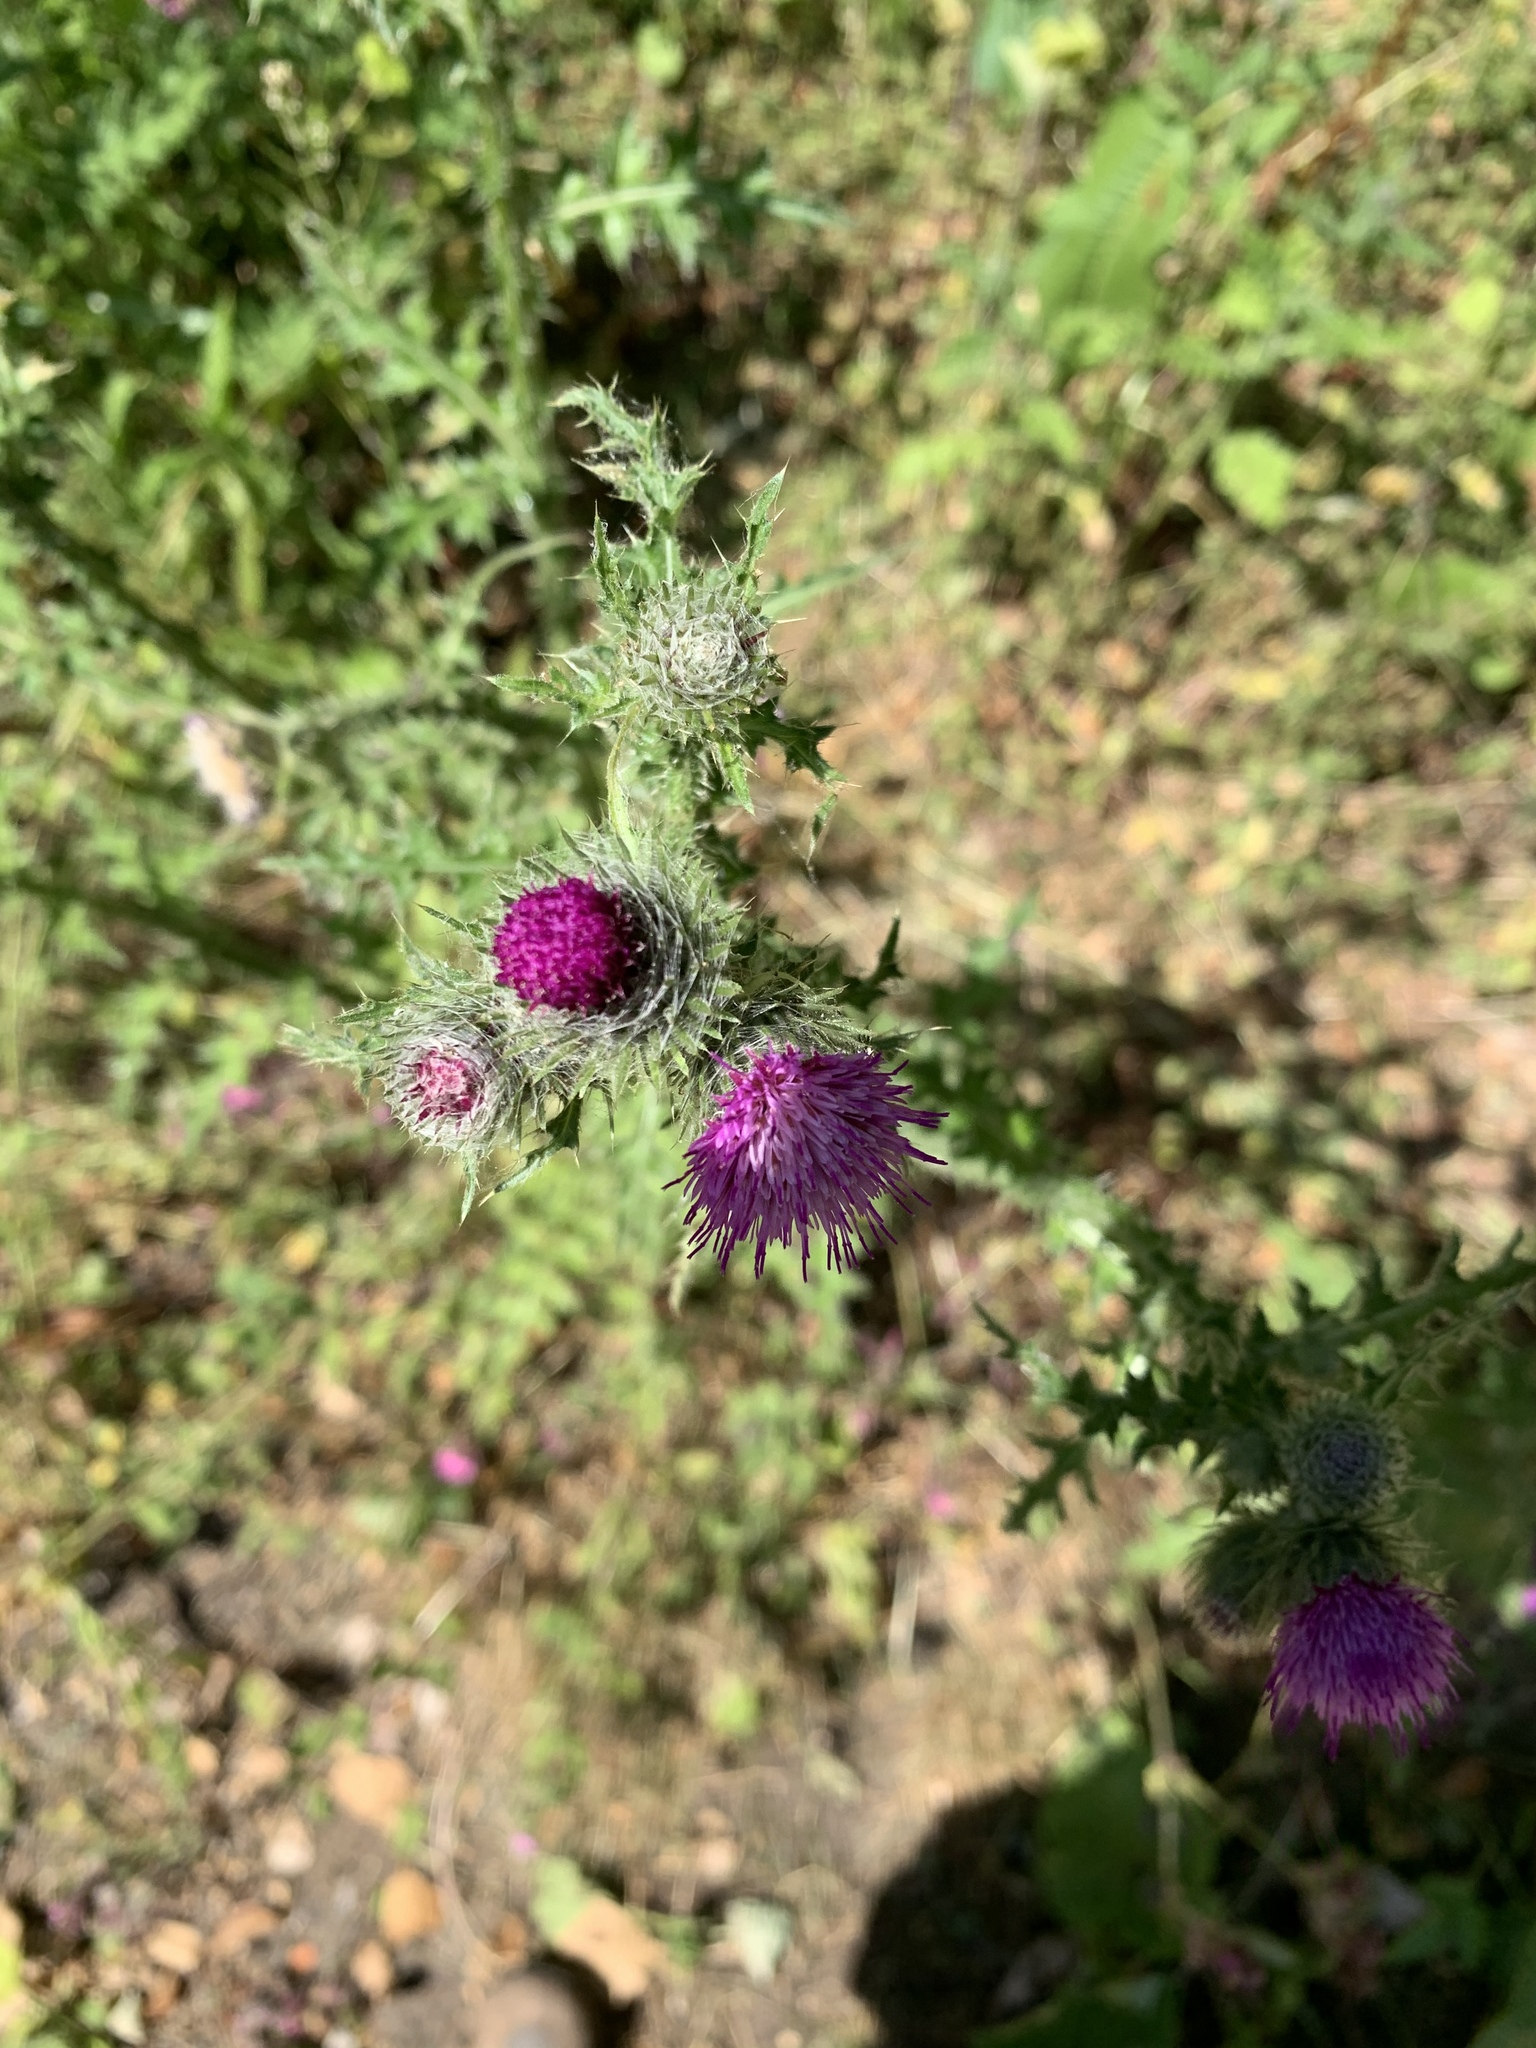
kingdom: Plantae
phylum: Tracheophyta
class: Magnoliopsida
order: Asterales
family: Asteraceae
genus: Carduus
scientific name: Carduus crispus
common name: Welted thistle
